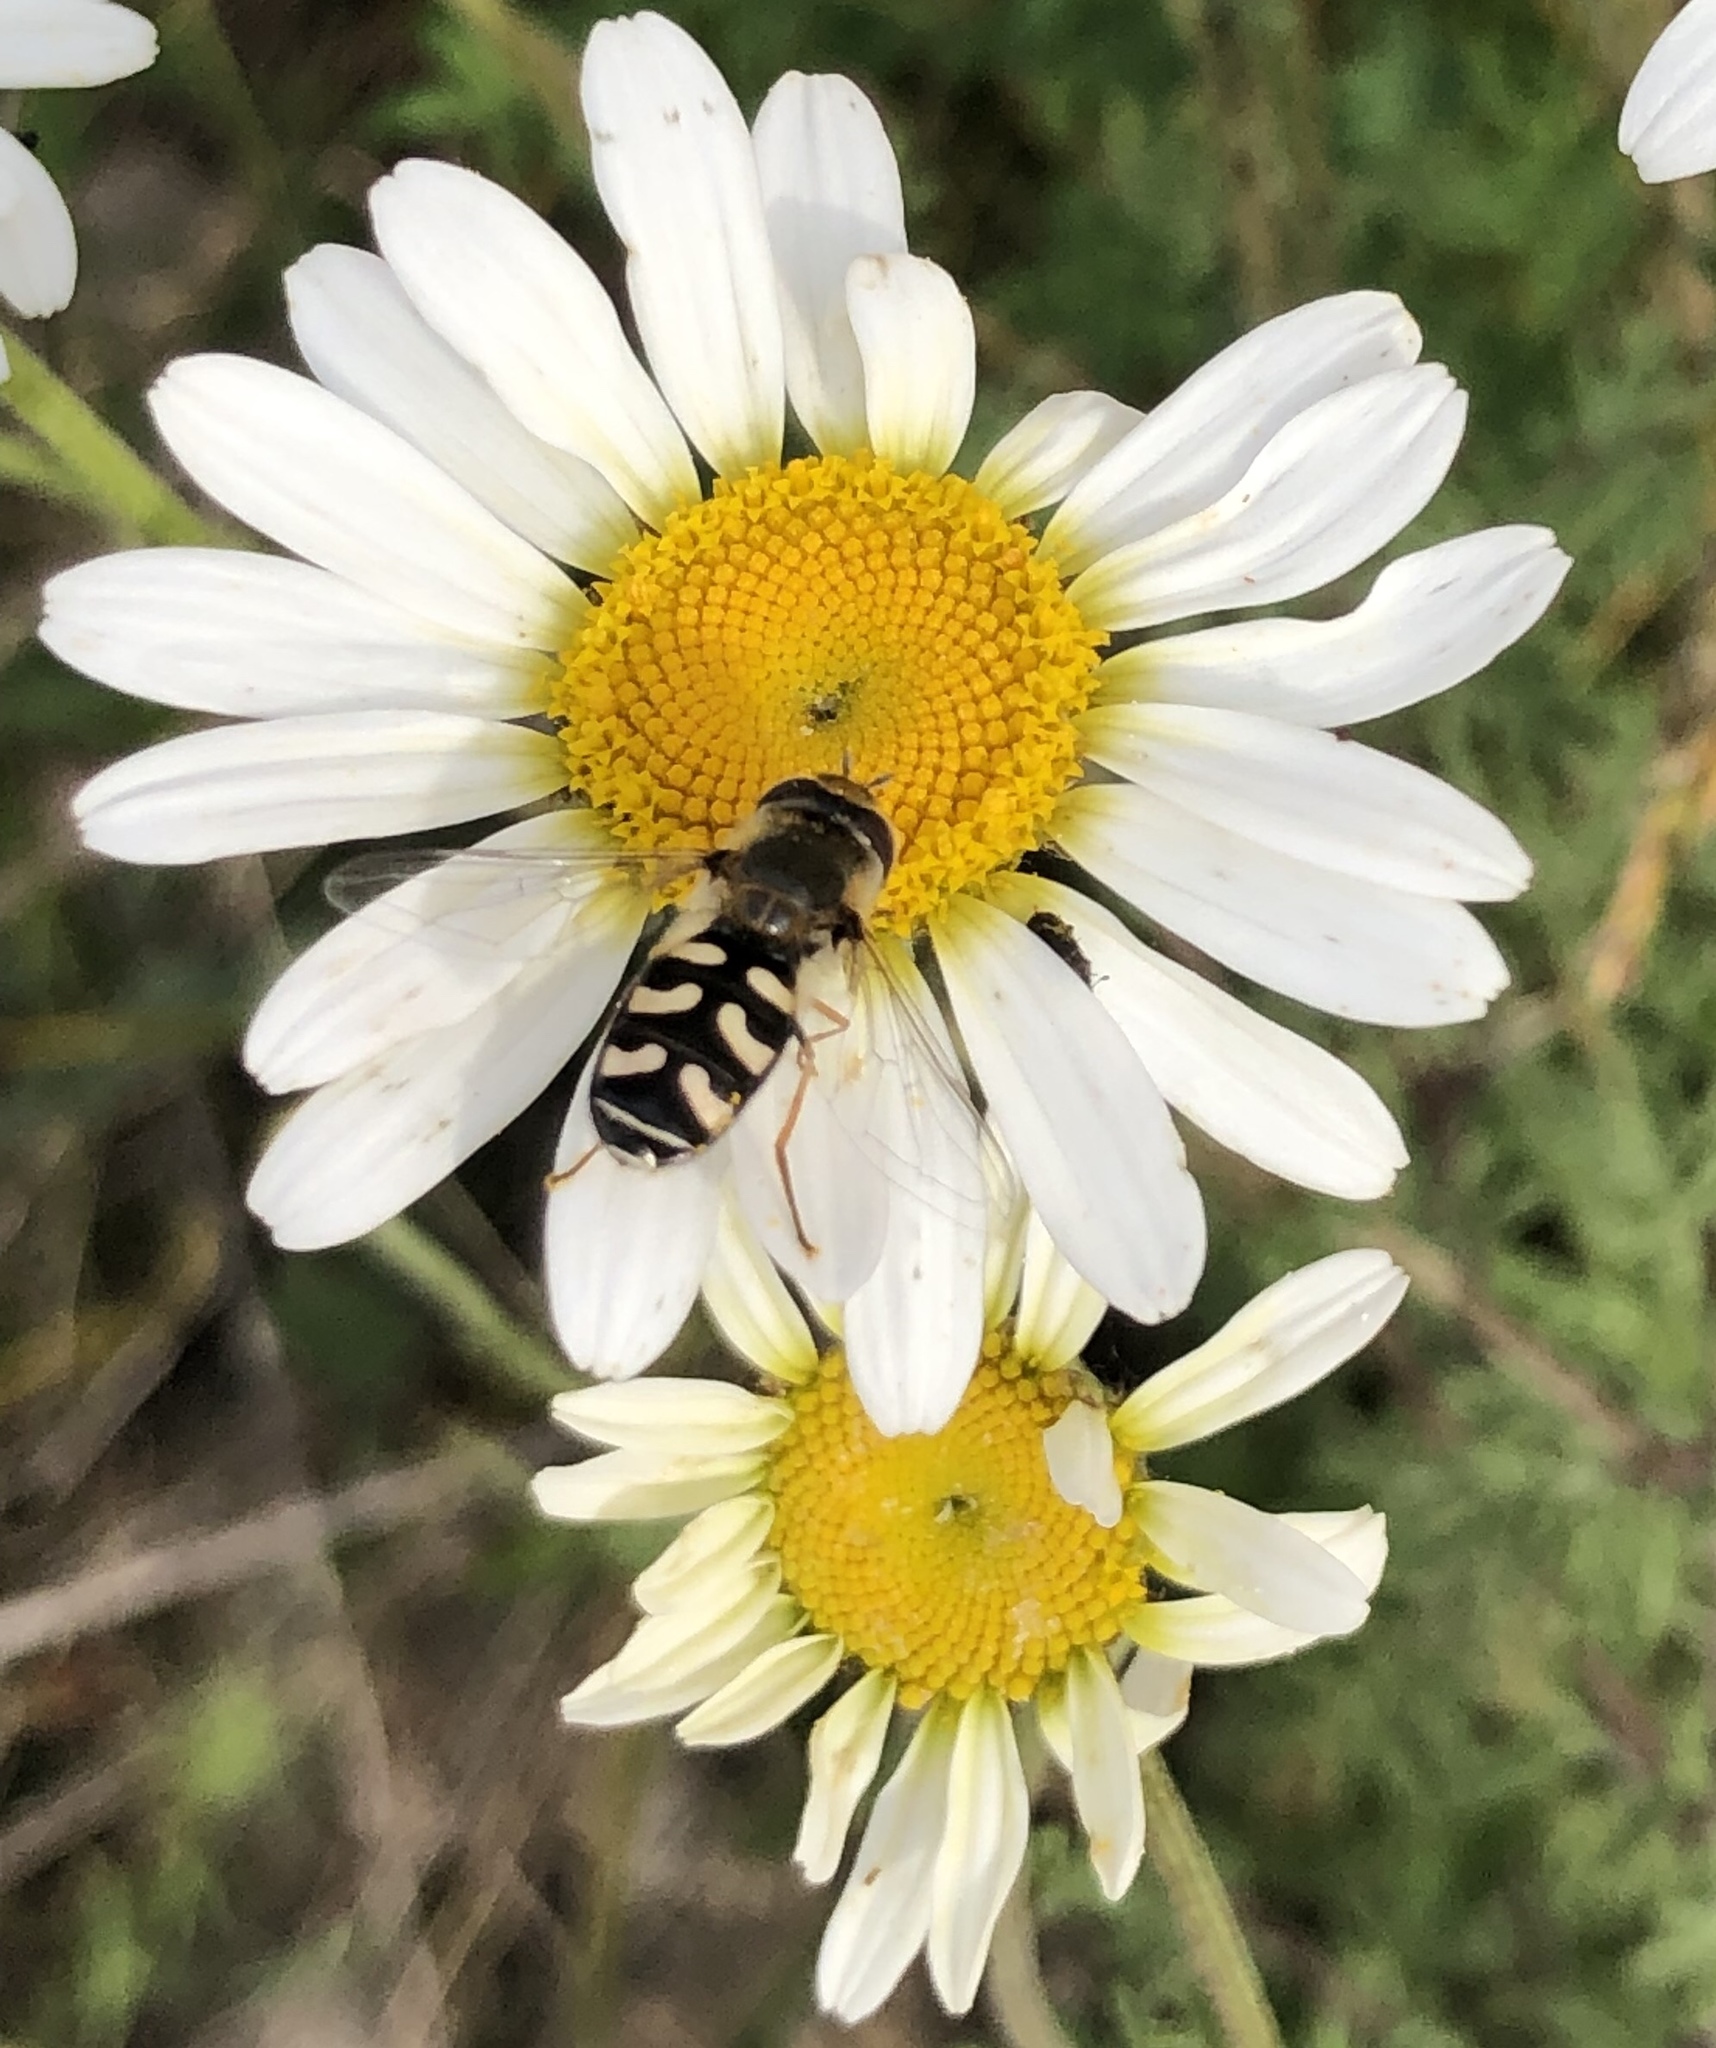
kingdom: Animalia
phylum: Arthropoda
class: Insecta
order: Diptera
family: Syrphidae
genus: Scaeva
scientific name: Scaeva pyrastri
